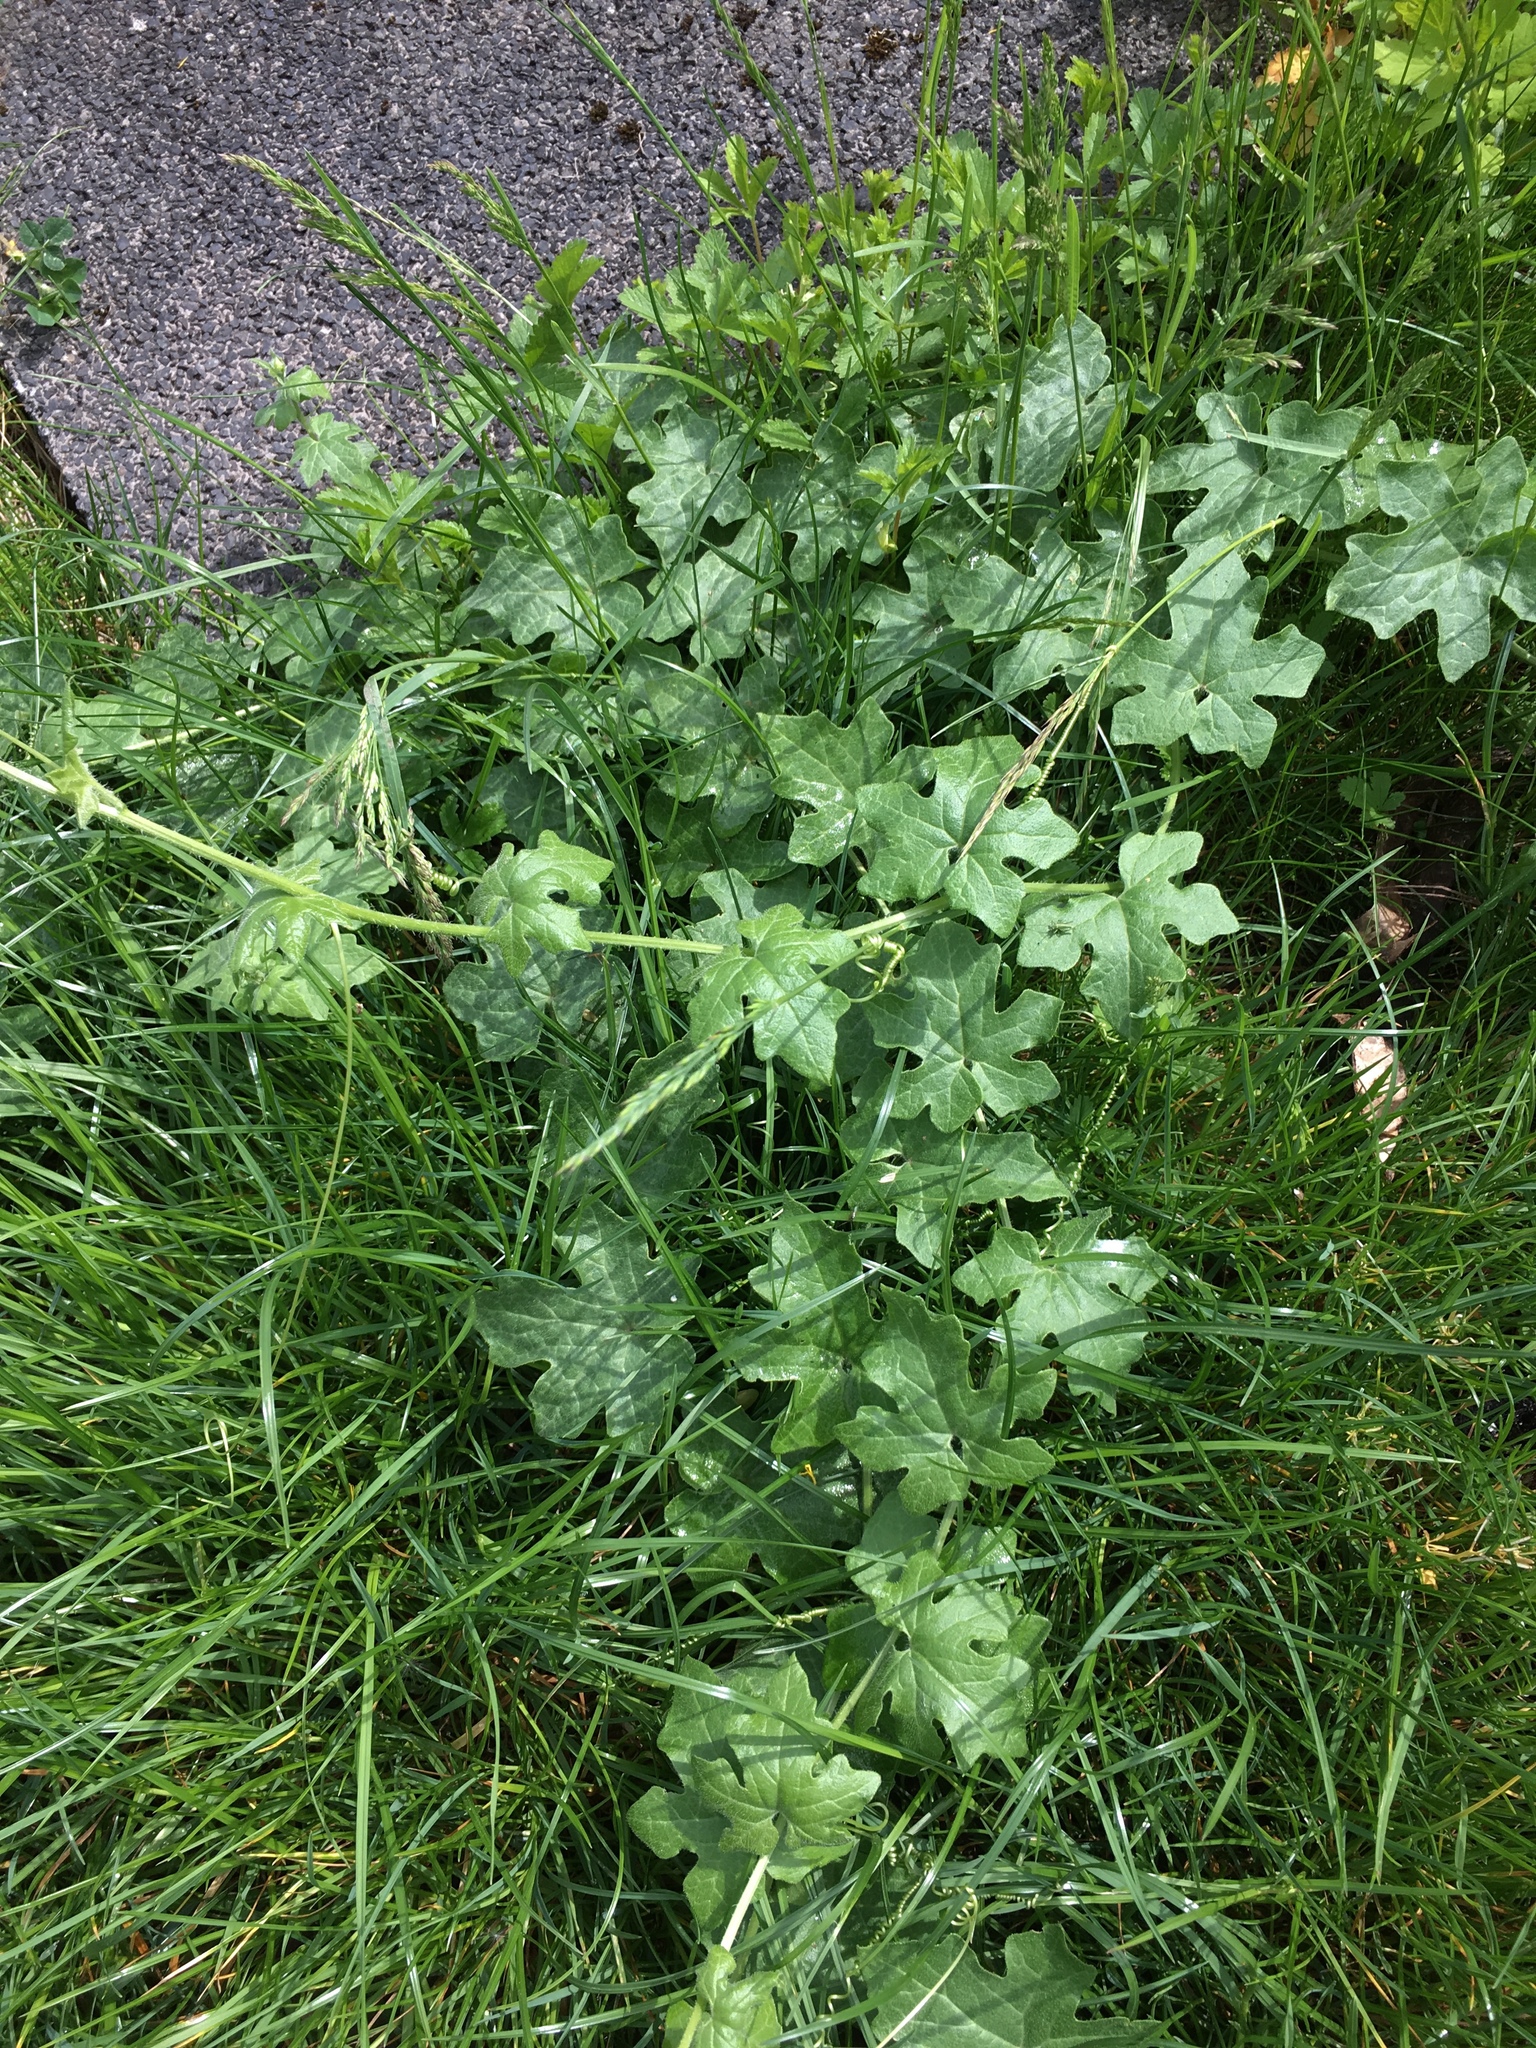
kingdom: Plantae
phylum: Tracheophyta
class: Magnoliopsida
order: Cucurbitales
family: Cucurbitaceae
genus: Bryonia
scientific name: Bryonia cretica
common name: Cretan bryony
